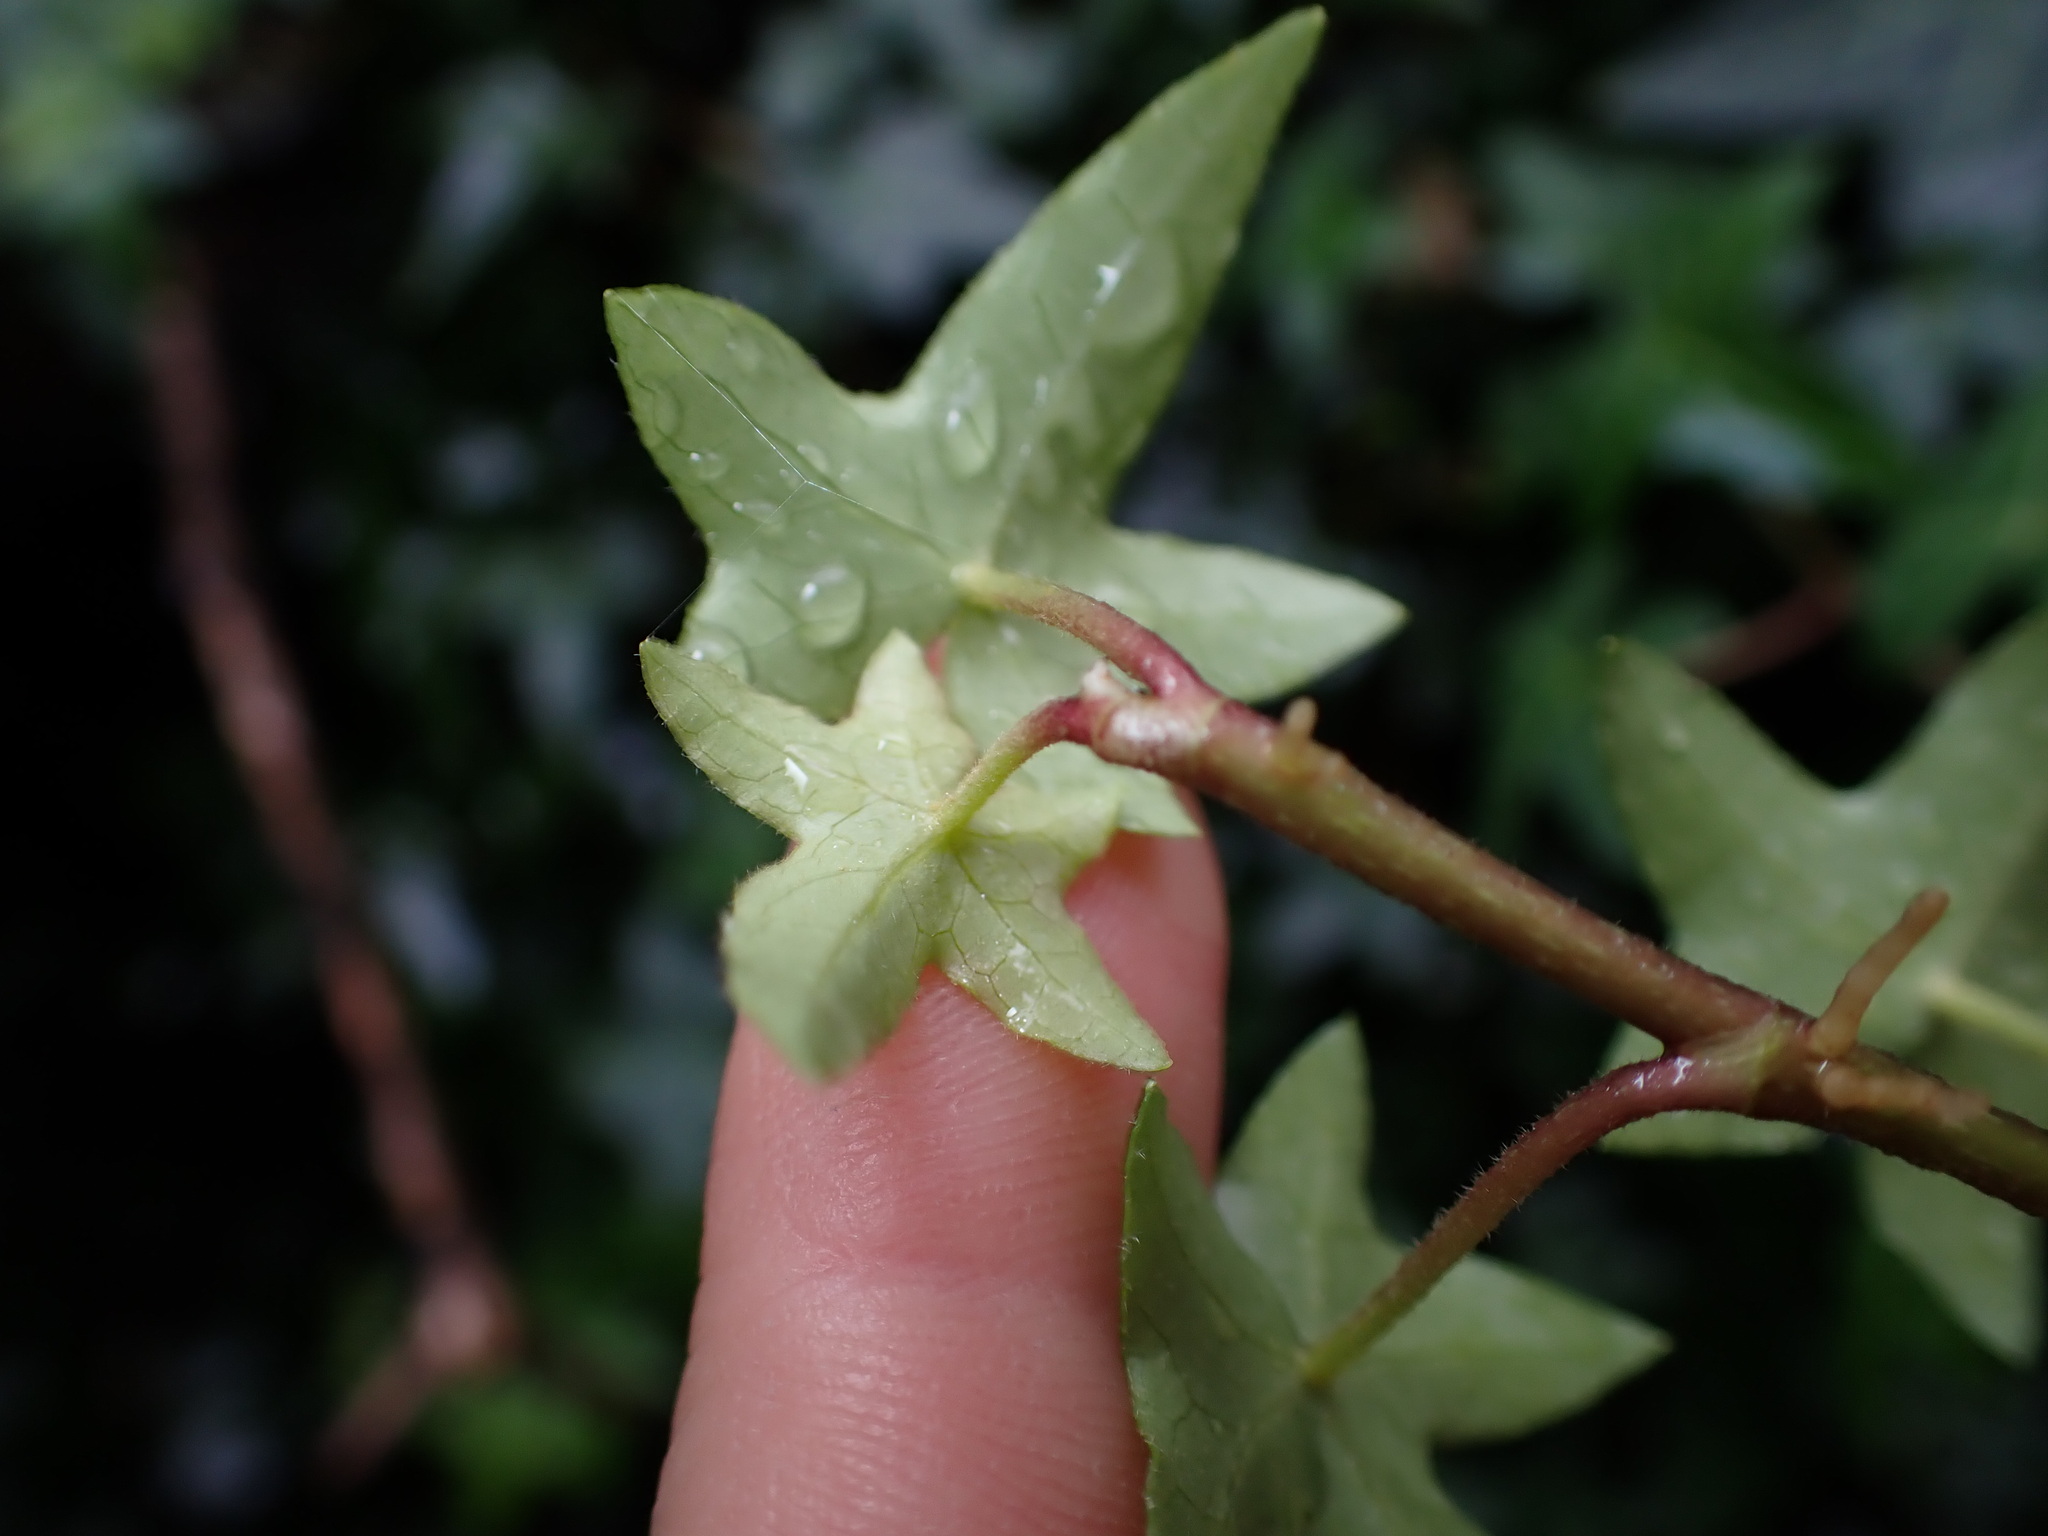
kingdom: Plantae
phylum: Tracheophyta
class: Magnoliopsida
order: Apiales
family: Araliaceae
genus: Hedera
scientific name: Hedera helix
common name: Ivy
